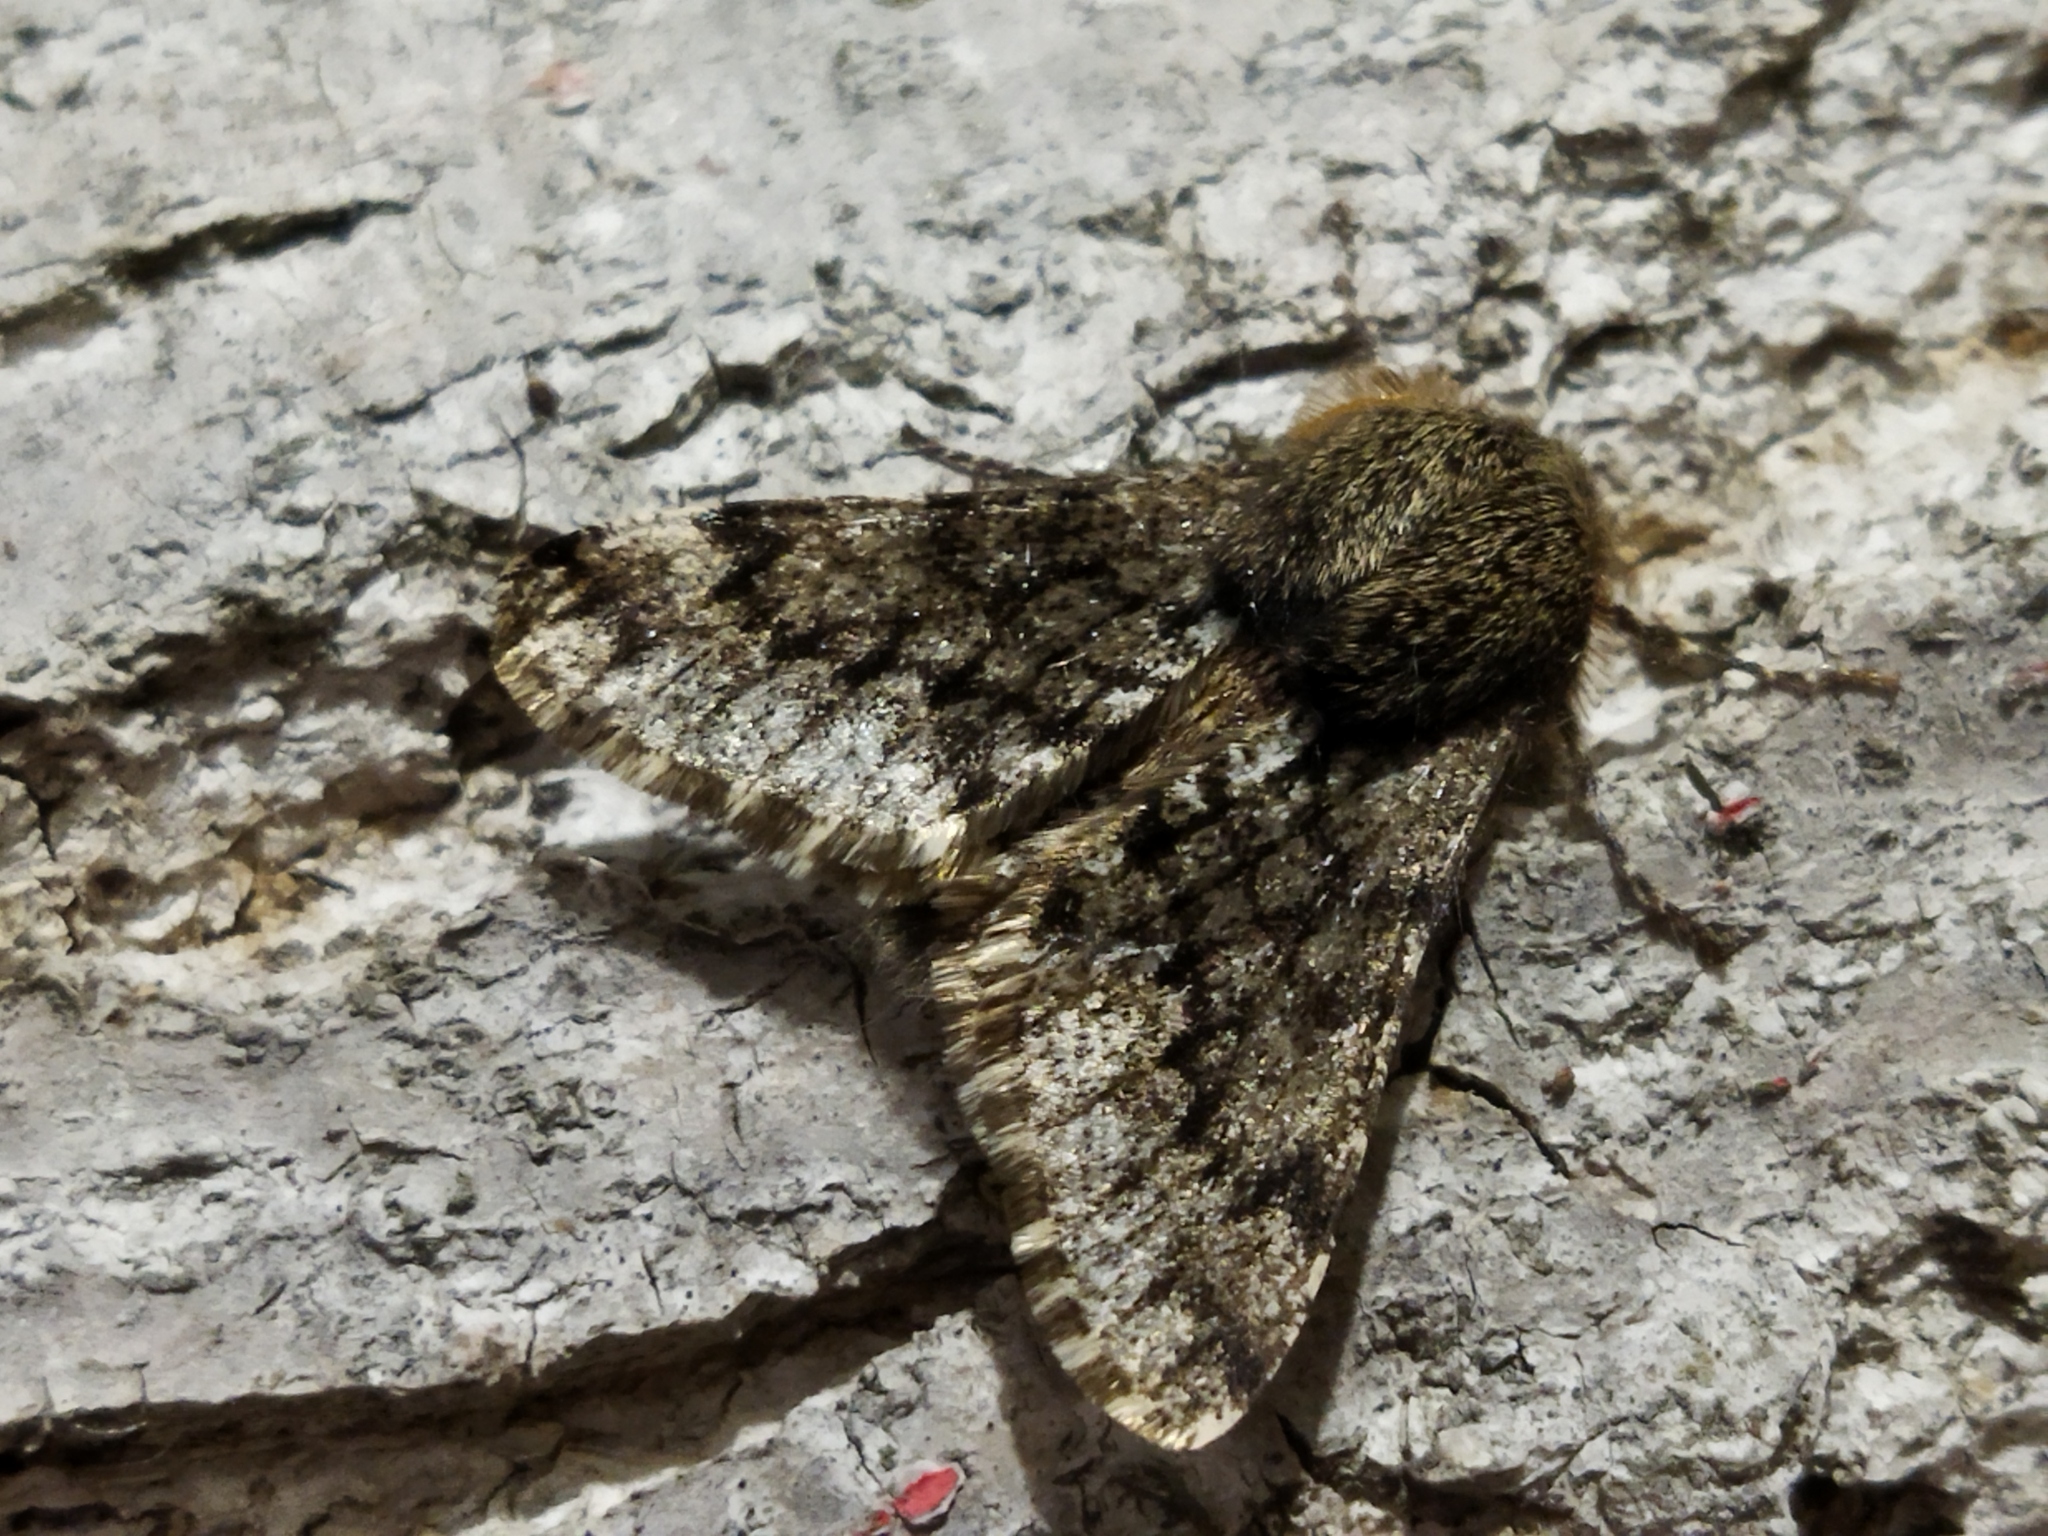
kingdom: Animalia
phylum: Arthropoda
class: Insecta
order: Lepidoptera
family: Geometridae
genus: Apocheima
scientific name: Apocheima hispidaria
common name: Small brindled beauty
